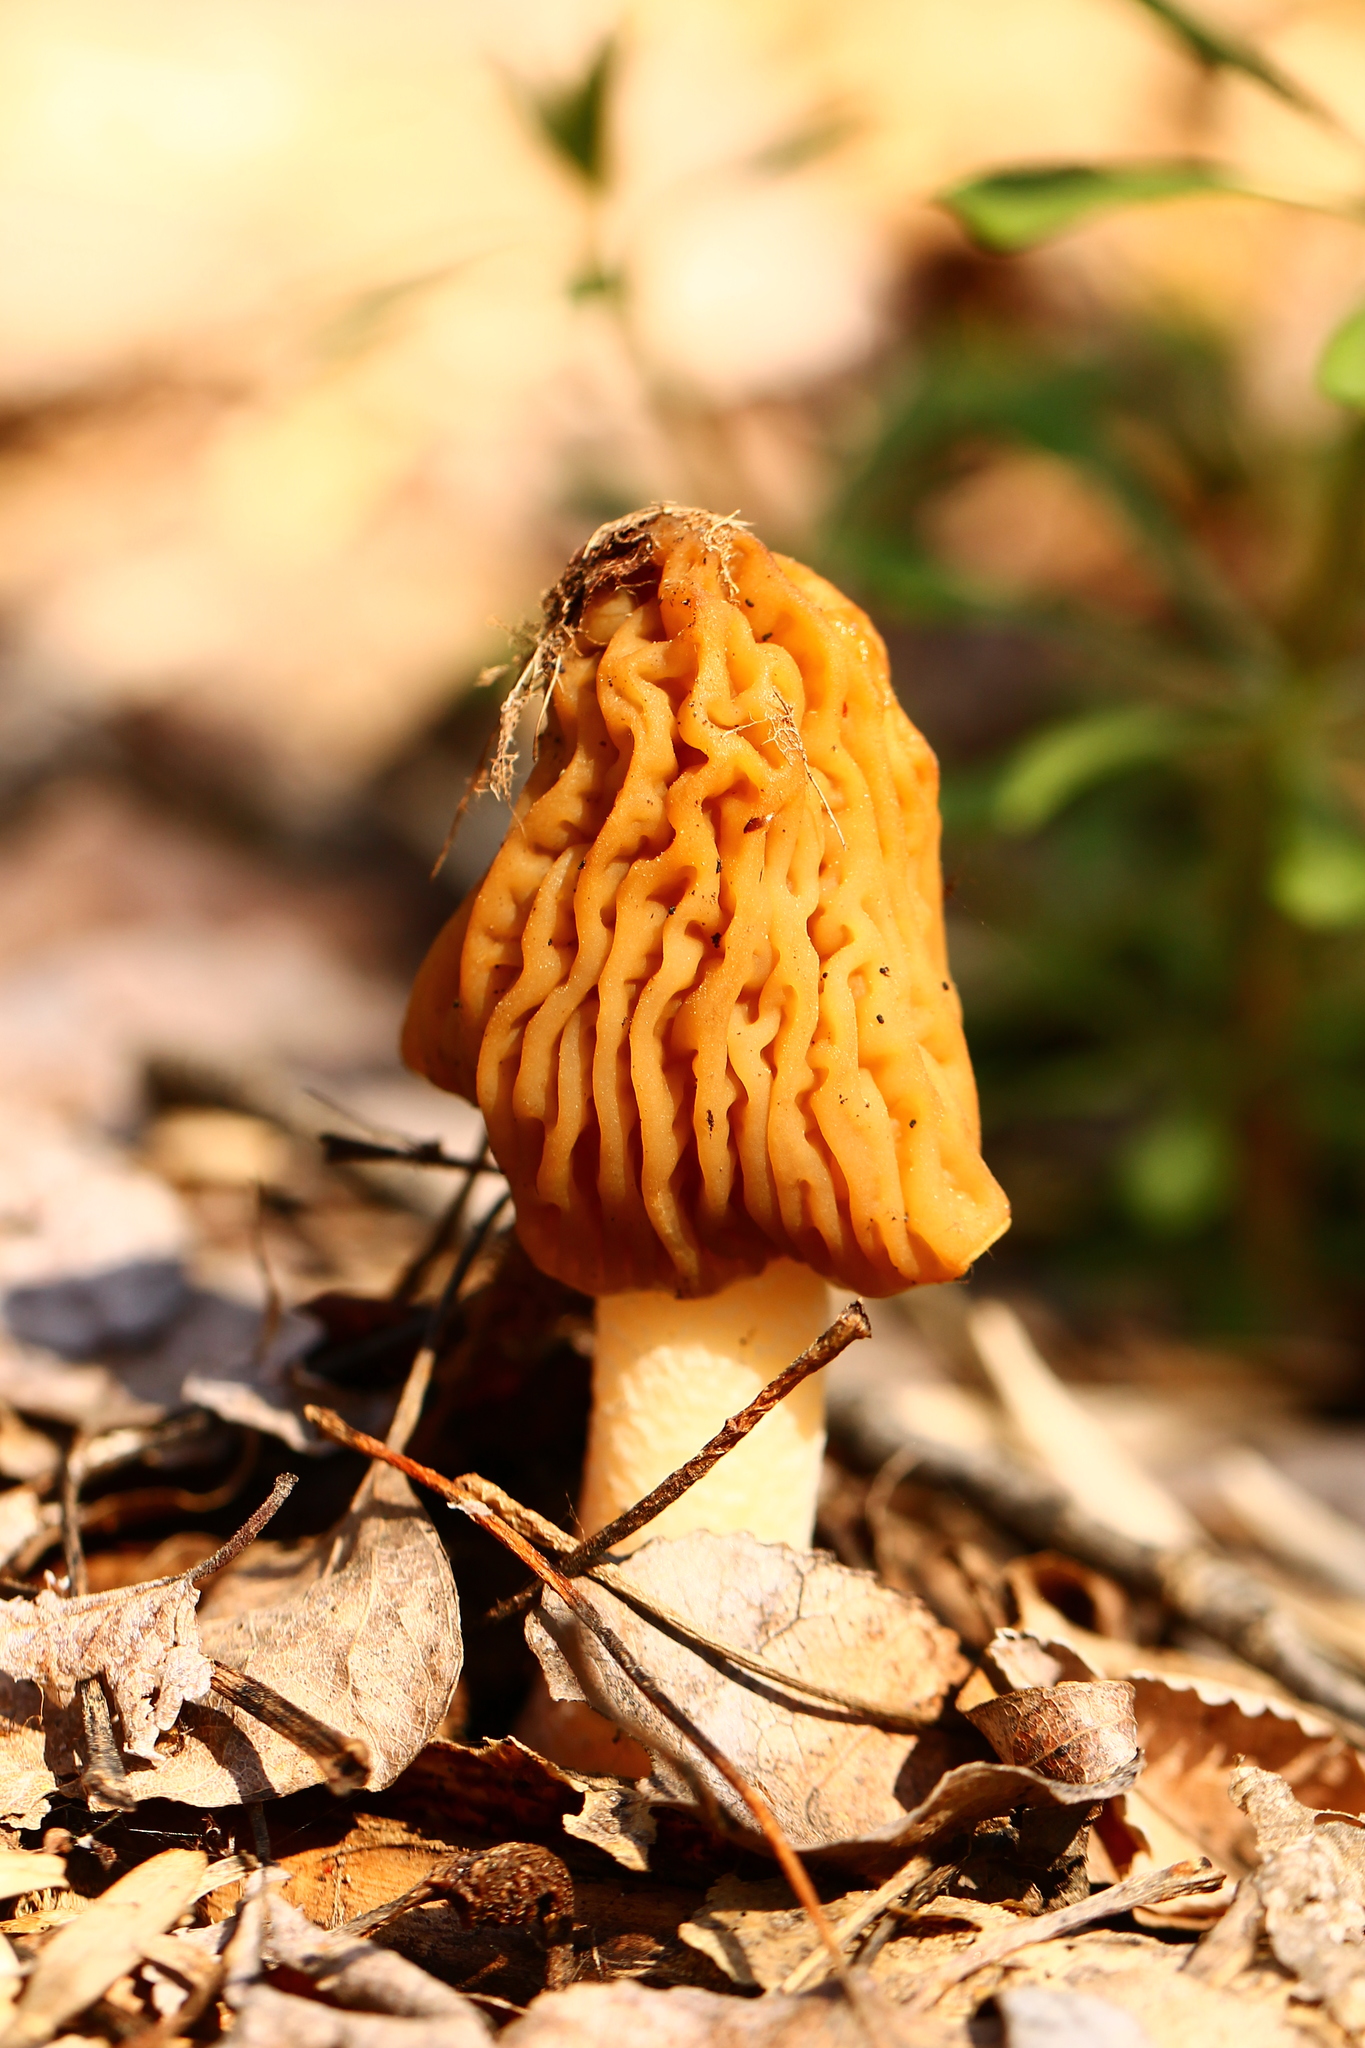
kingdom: Fungi
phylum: Ascomycota
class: Pezizomycetes
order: Pezizales
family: Morchellaceae
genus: Verpa
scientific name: Verpa bohemica
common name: Wrinkled thimble morel
